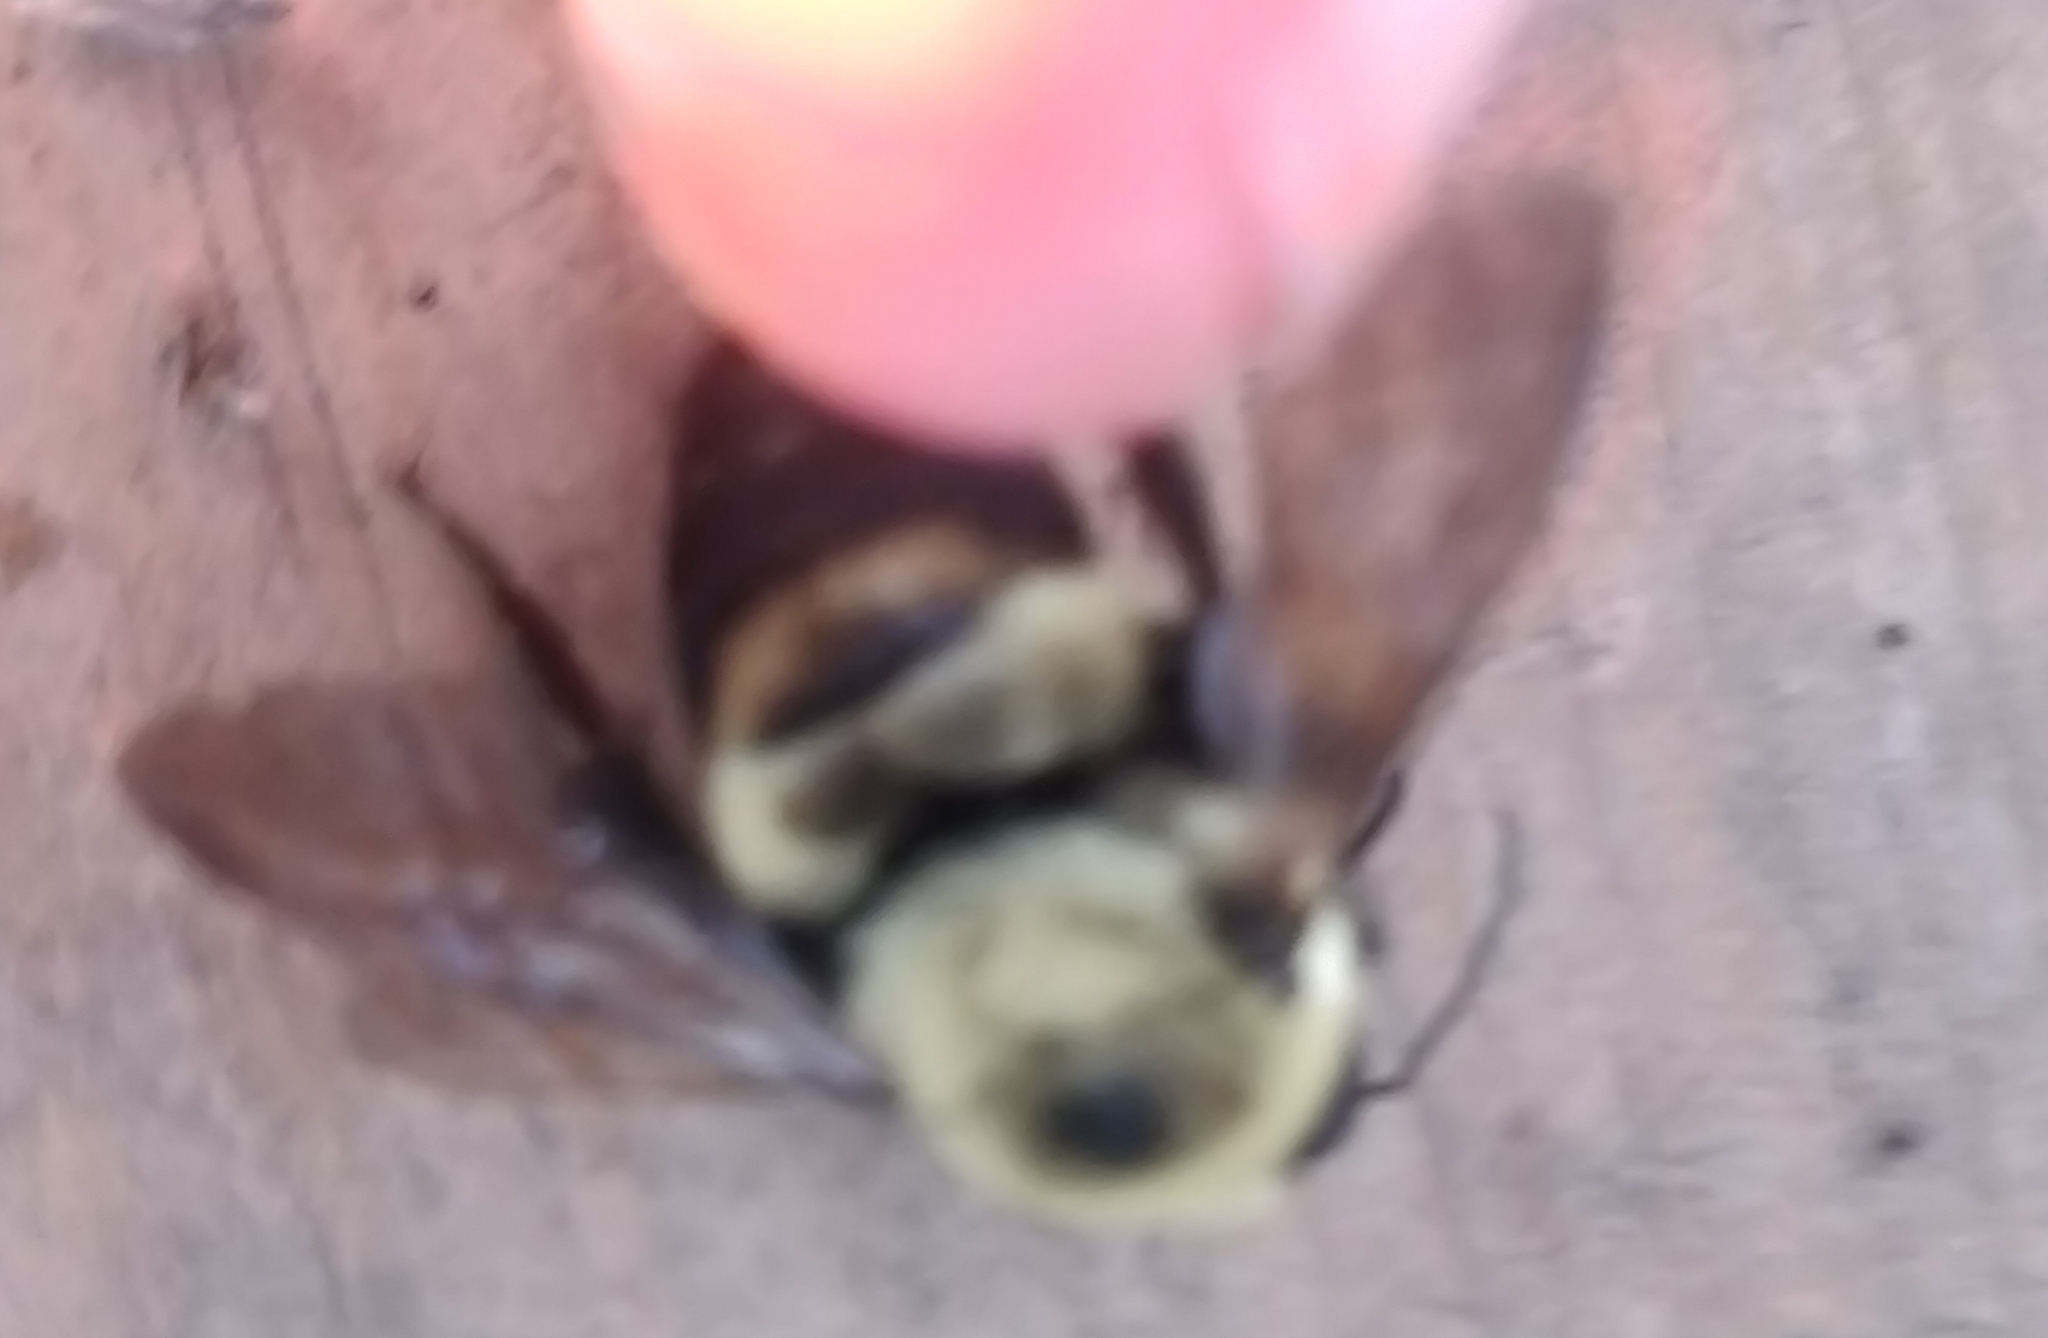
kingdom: Animalia
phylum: Arthropoda
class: Insecta
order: Hymenoptera
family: Apidae
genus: Bombus
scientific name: Bombus griseocollis
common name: Brown-belted bumble bee
